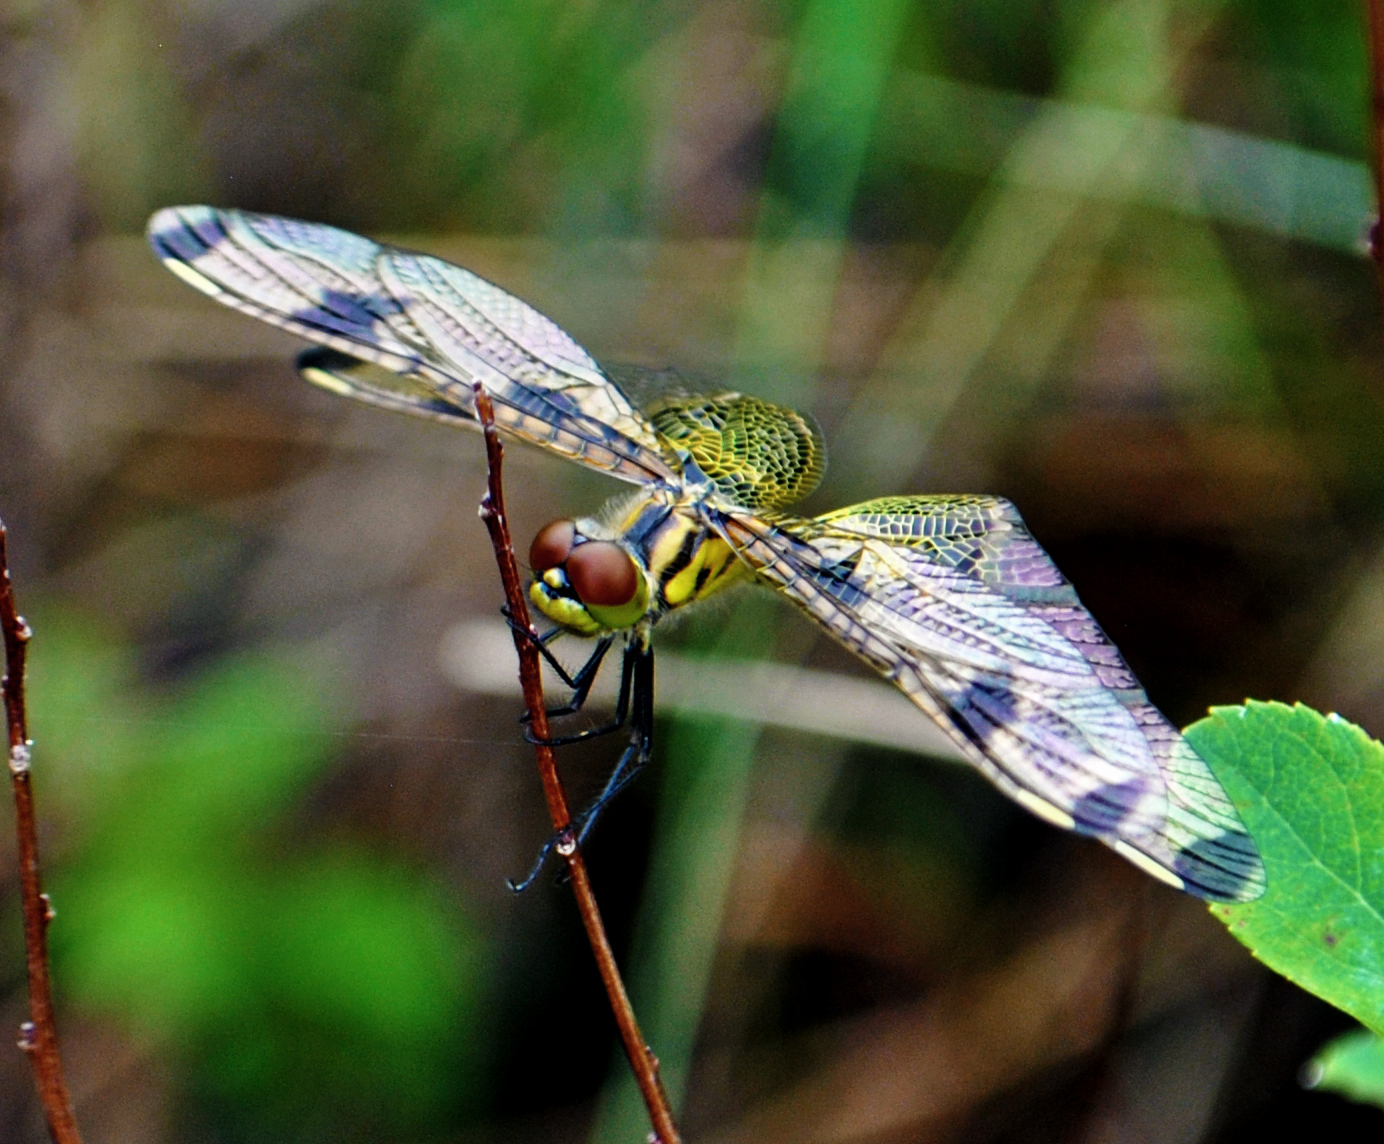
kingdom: Animalia
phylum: Arthropoda
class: Insecta
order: Odonata
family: Libellulidae
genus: Celithemis
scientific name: Celithemis elisa
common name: Calico pennant
